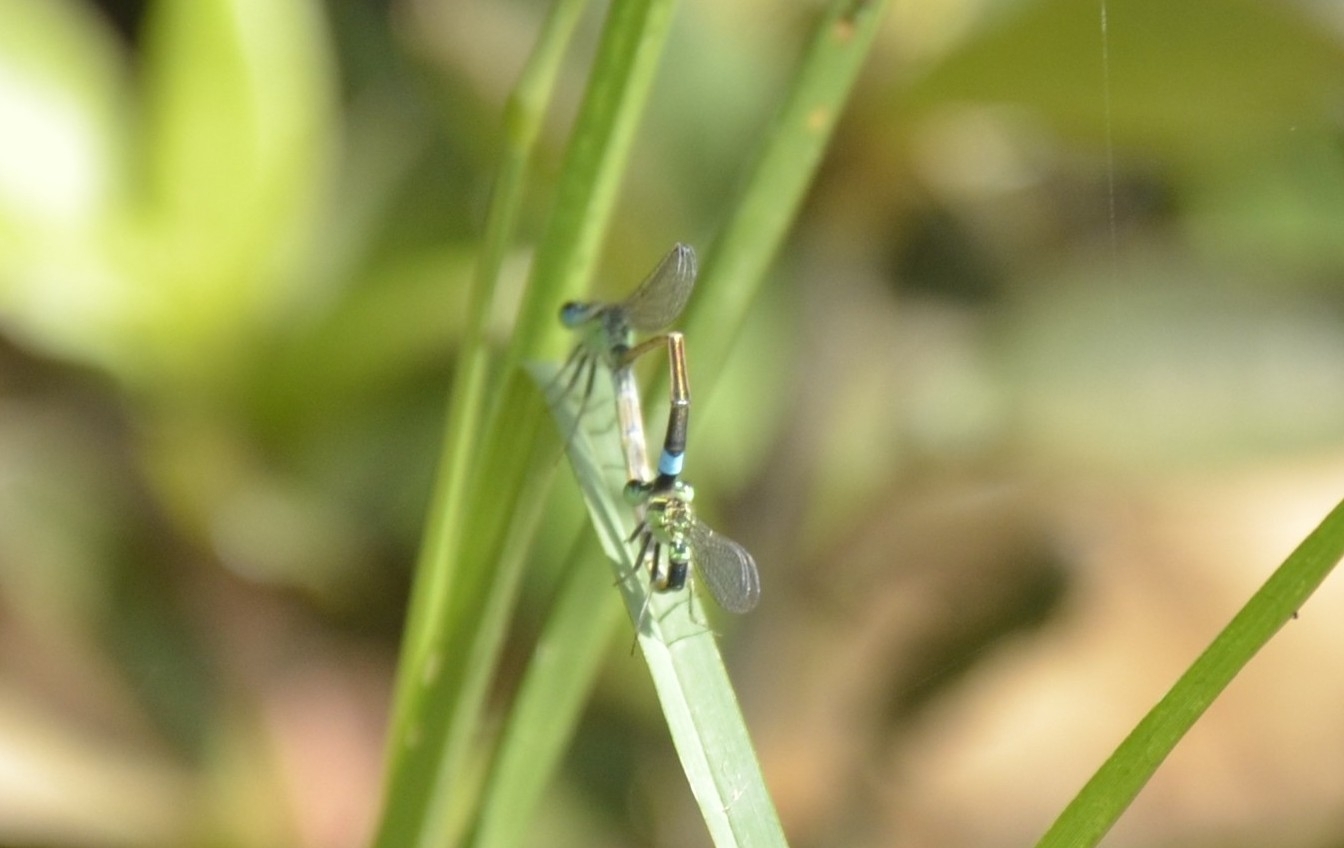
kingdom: Animalia
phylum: Arthropoda
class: Insecta
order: Odonata
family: Coenagrionidae
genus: Ischnura
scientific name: Ischnura senegalensis
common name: Tropical bluetail
